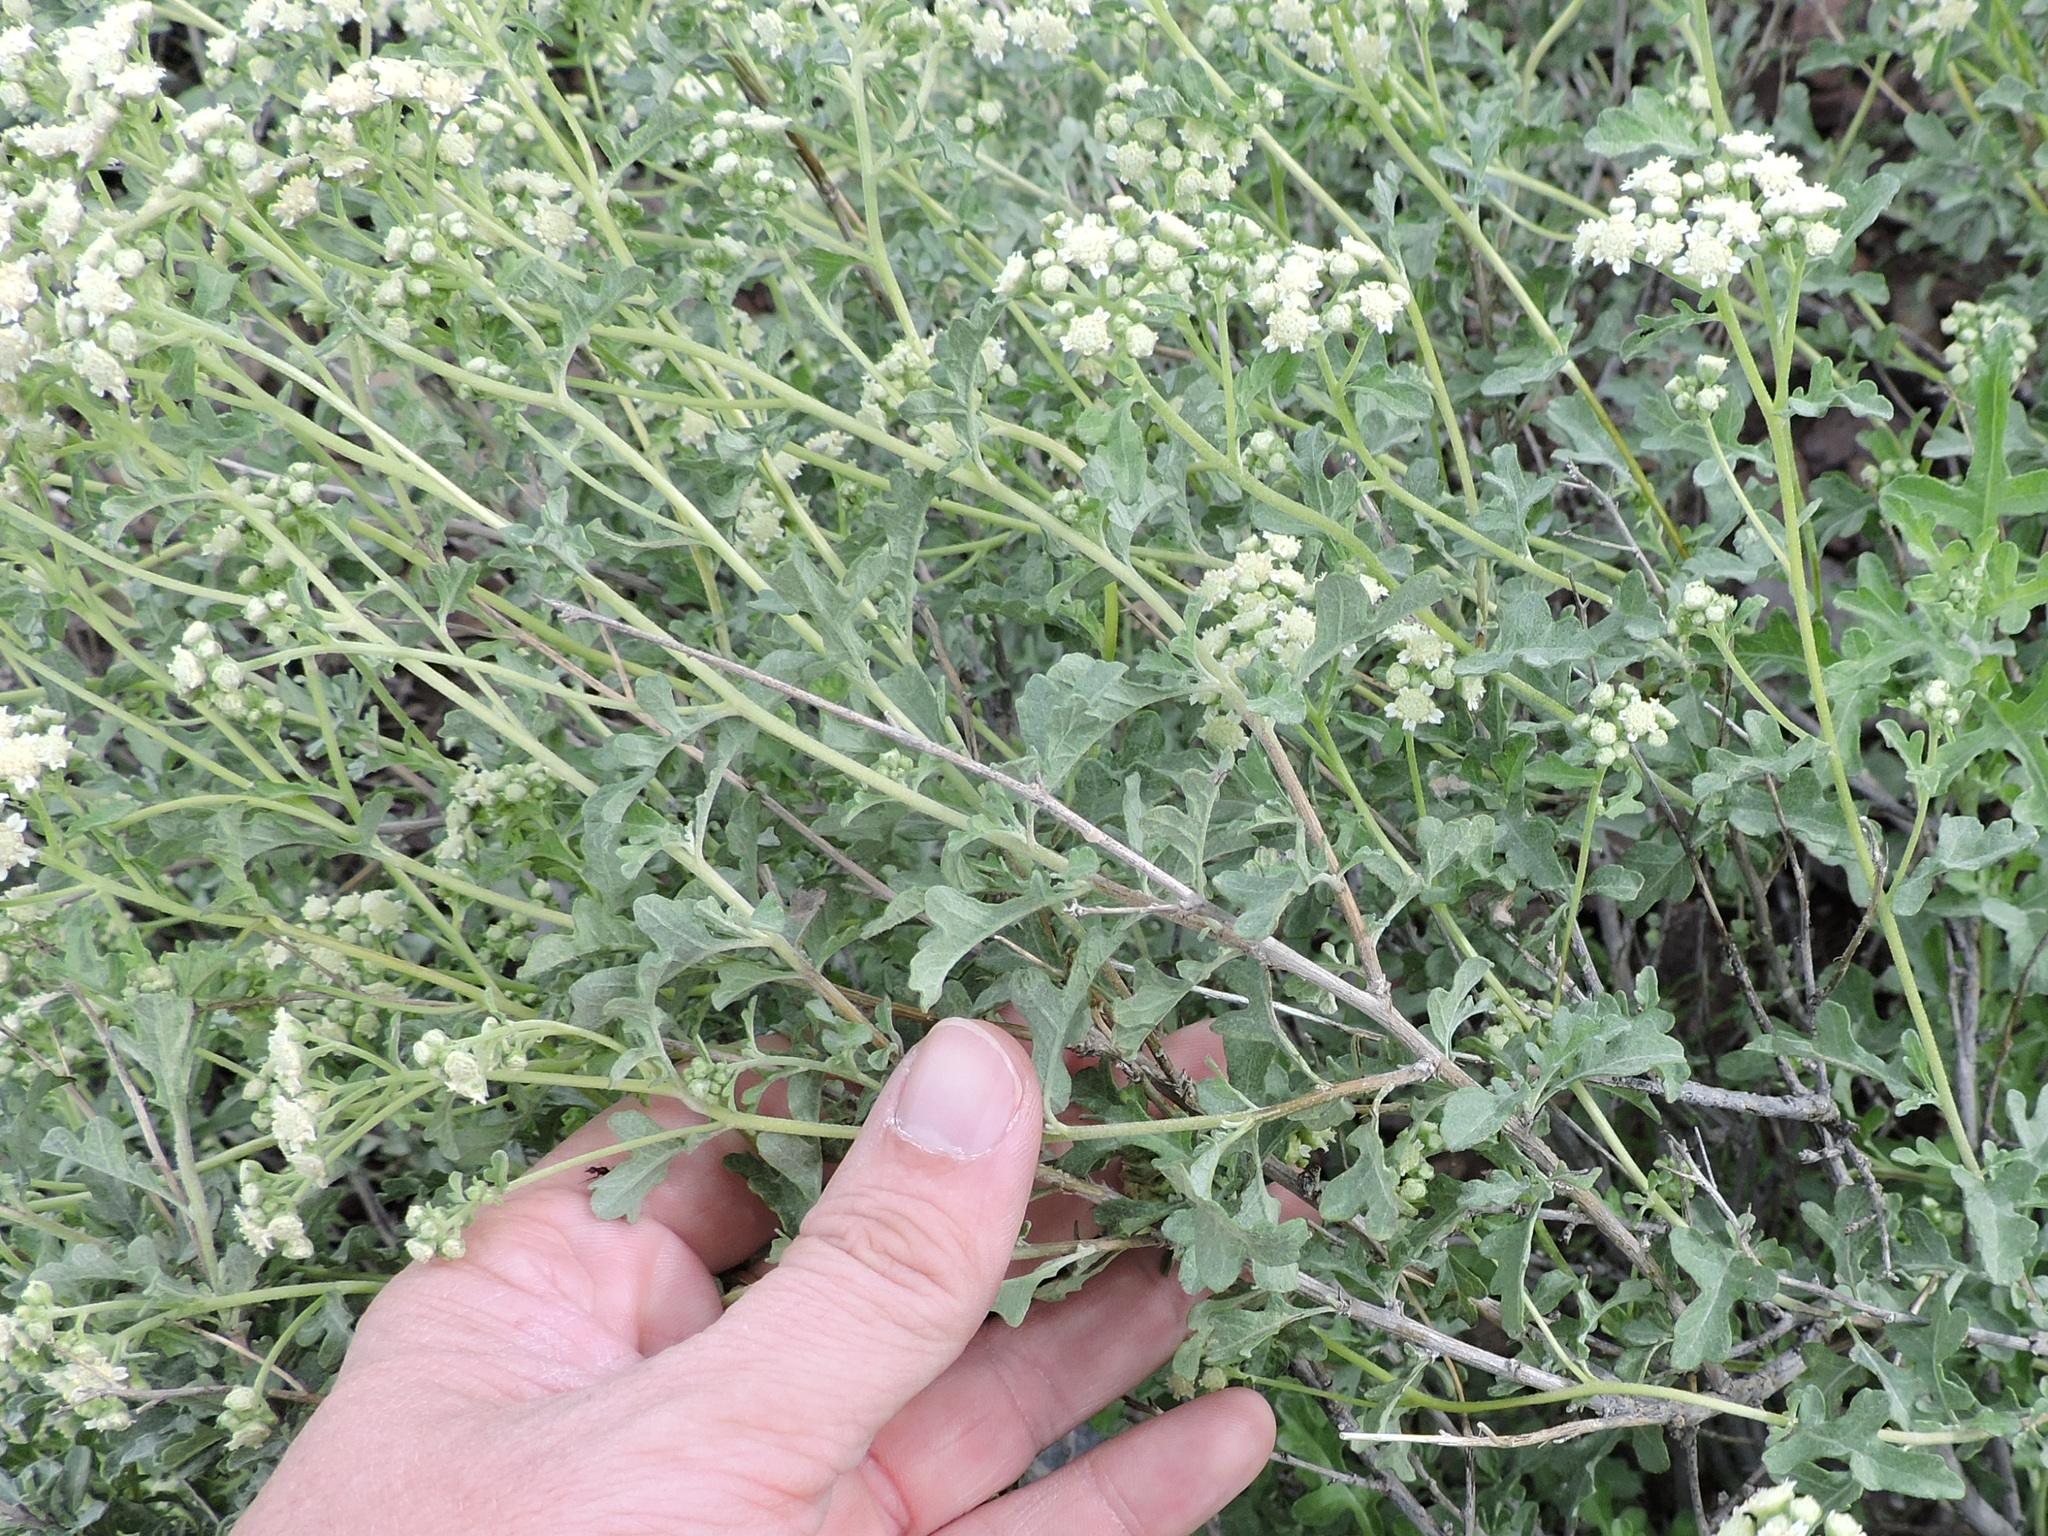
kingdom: Plantae
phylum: Tracheophyta
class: Magnoliopsida
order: Asterales
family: Asteraceae
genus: Parthenium
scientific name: Parthenium incanum
